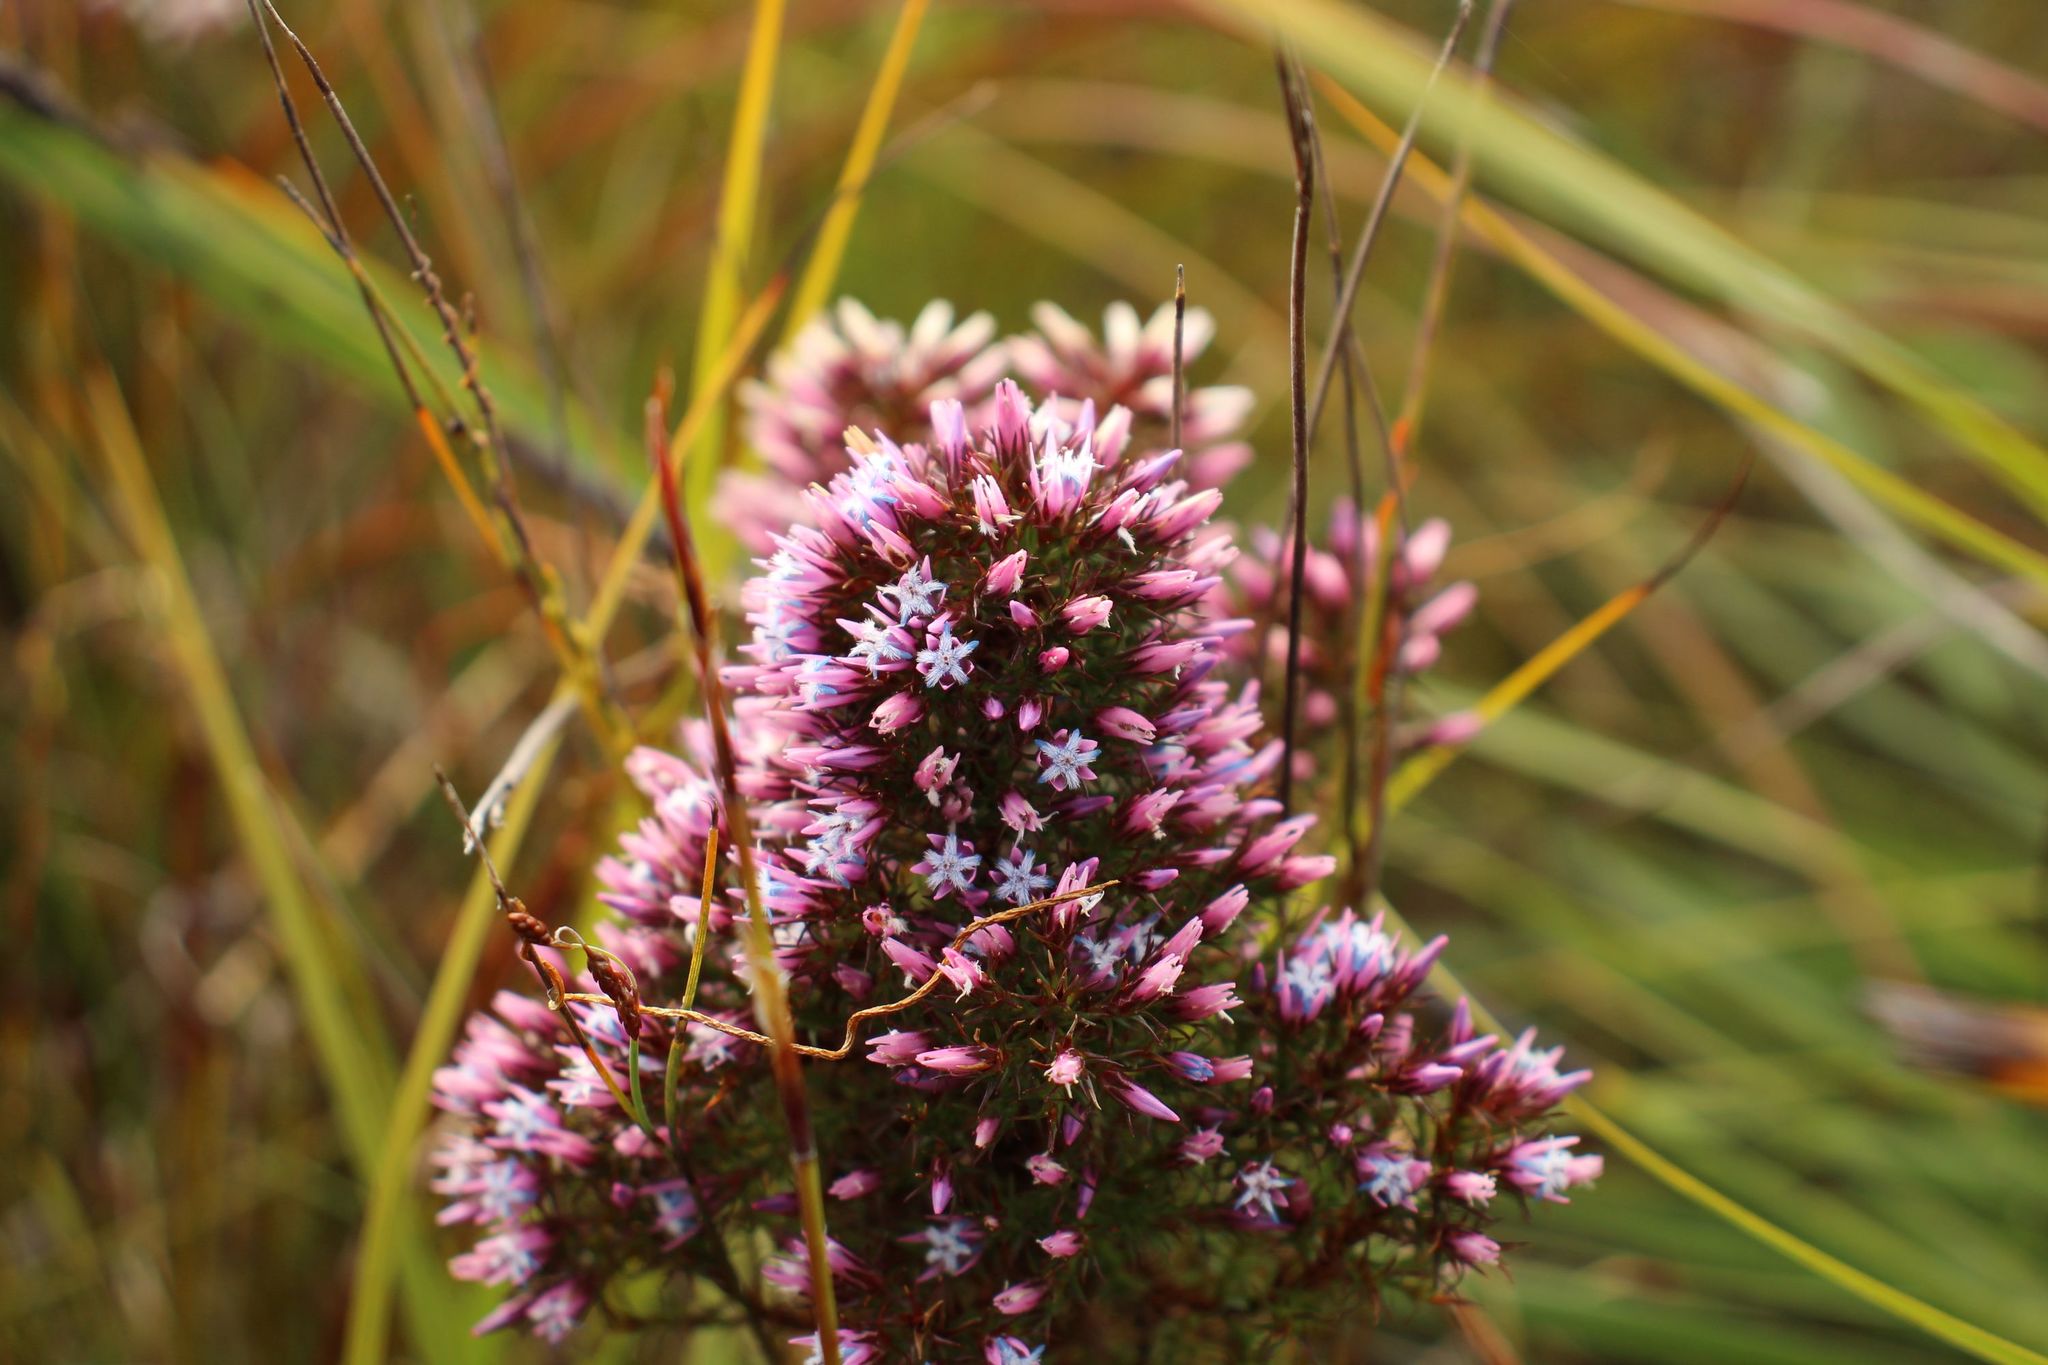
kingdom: Plantae
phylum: Tracheophyta
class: Magnoliopsida
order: Ericales
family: Ericaceae
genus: Andersonia
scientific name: Andersonia caerulea
